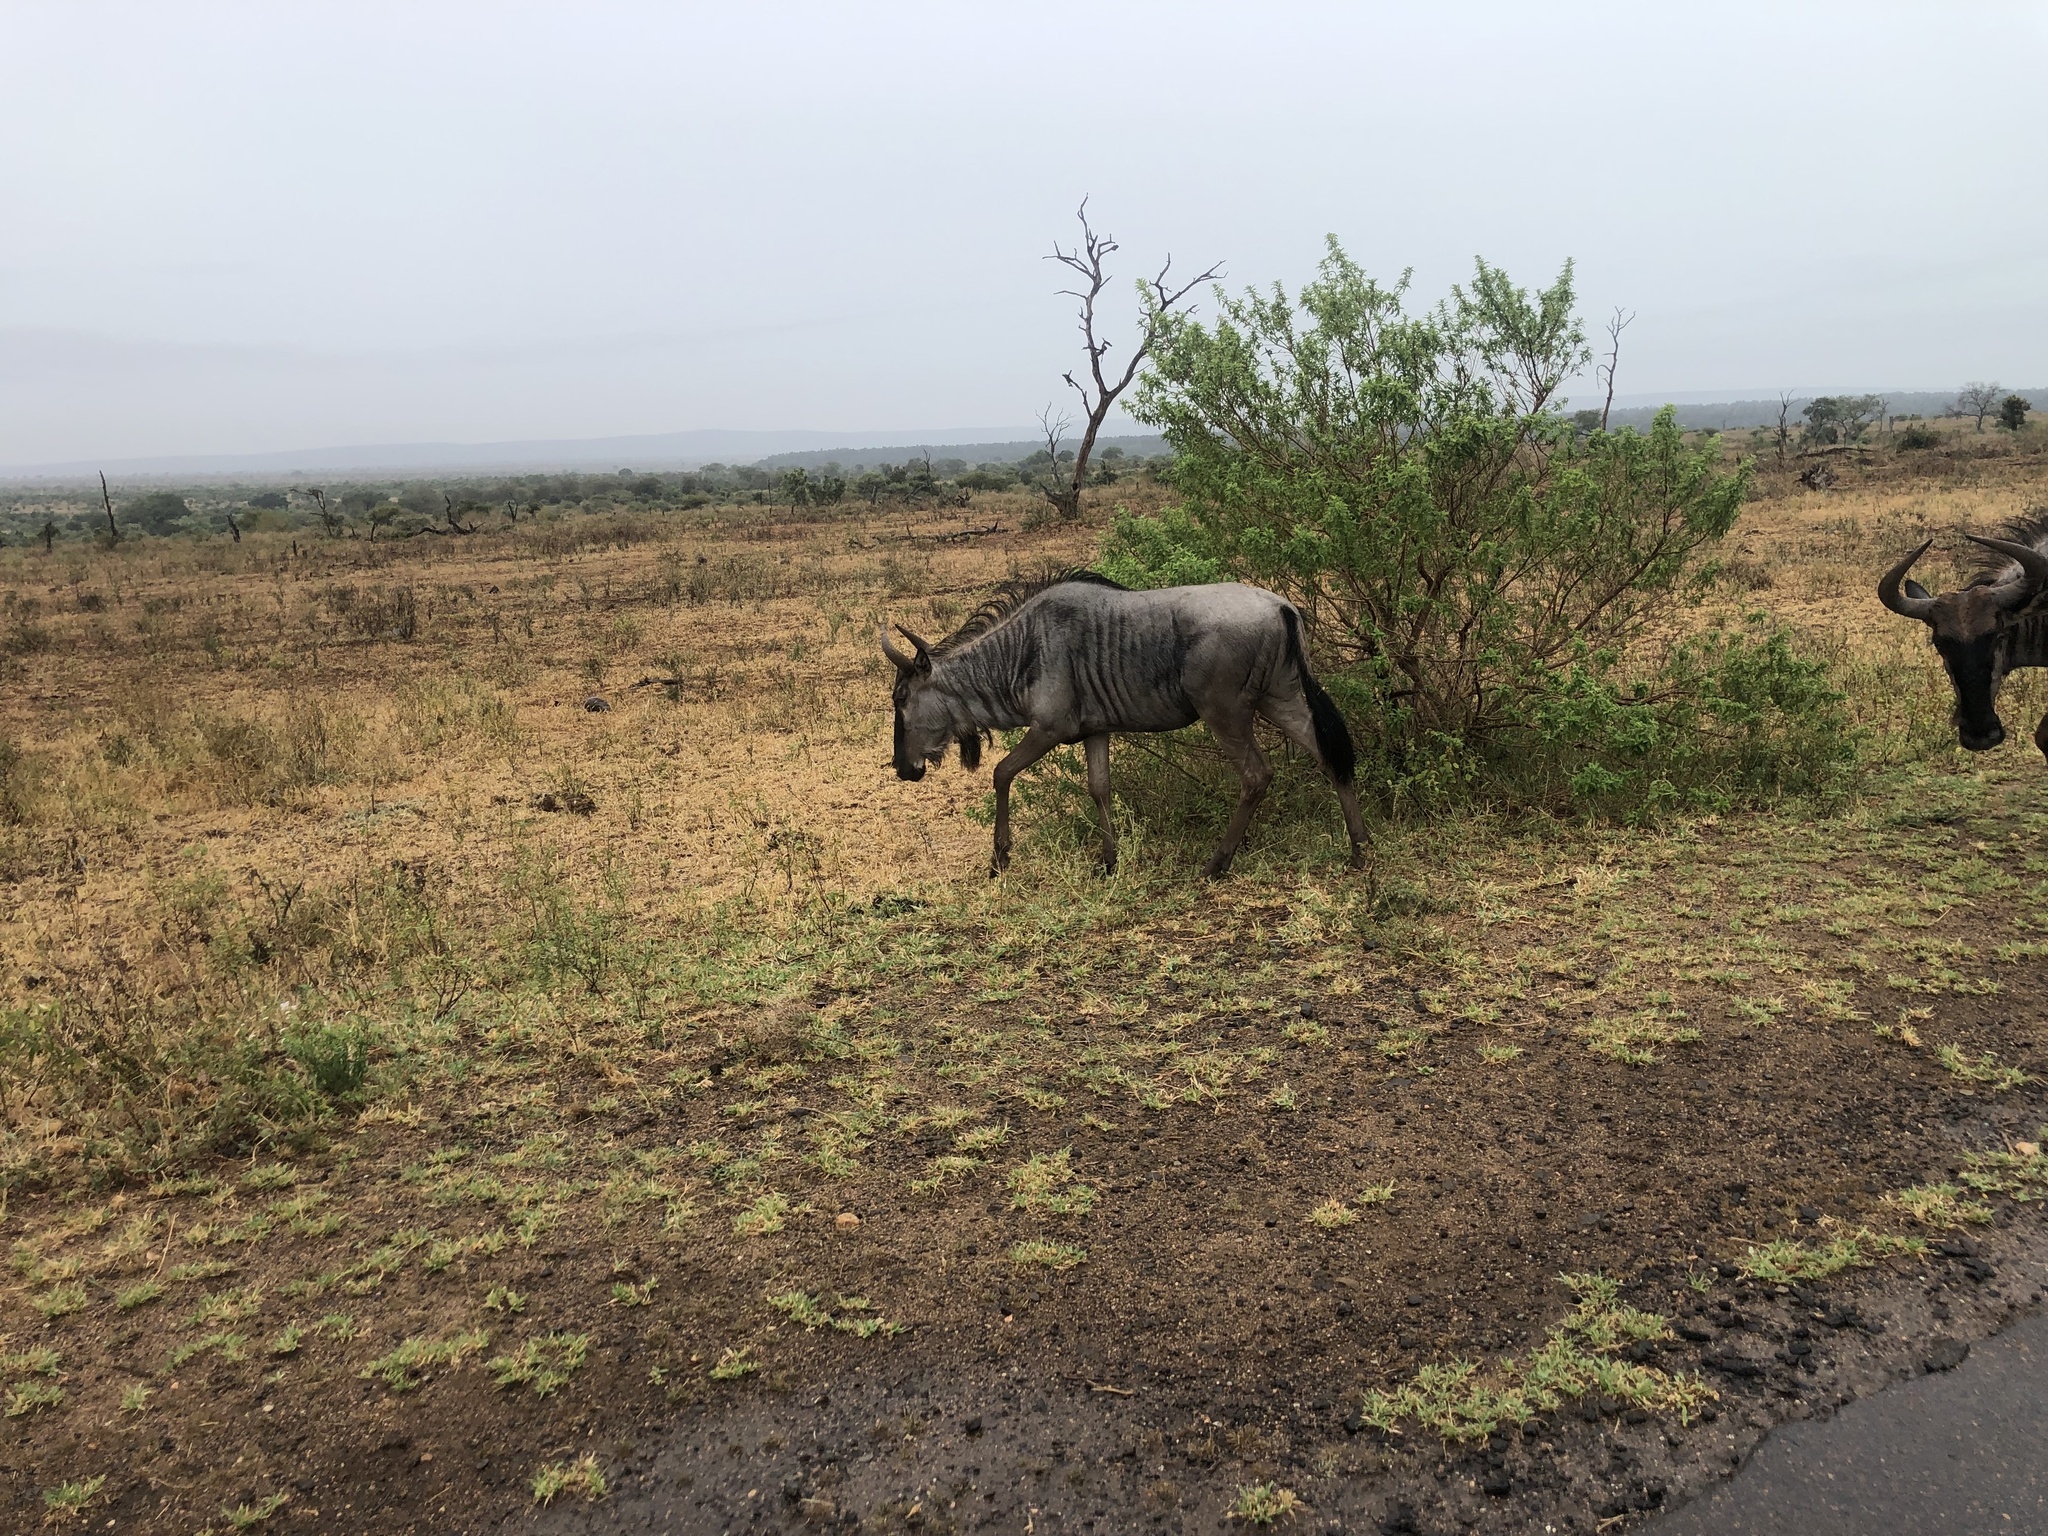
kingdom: Animalia
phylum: Chordata
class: Mammalia
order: Artiodactyla
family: Bovidae
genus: Connochaetes
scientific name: Connochaetes taurinus
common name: Blue wildebeest
